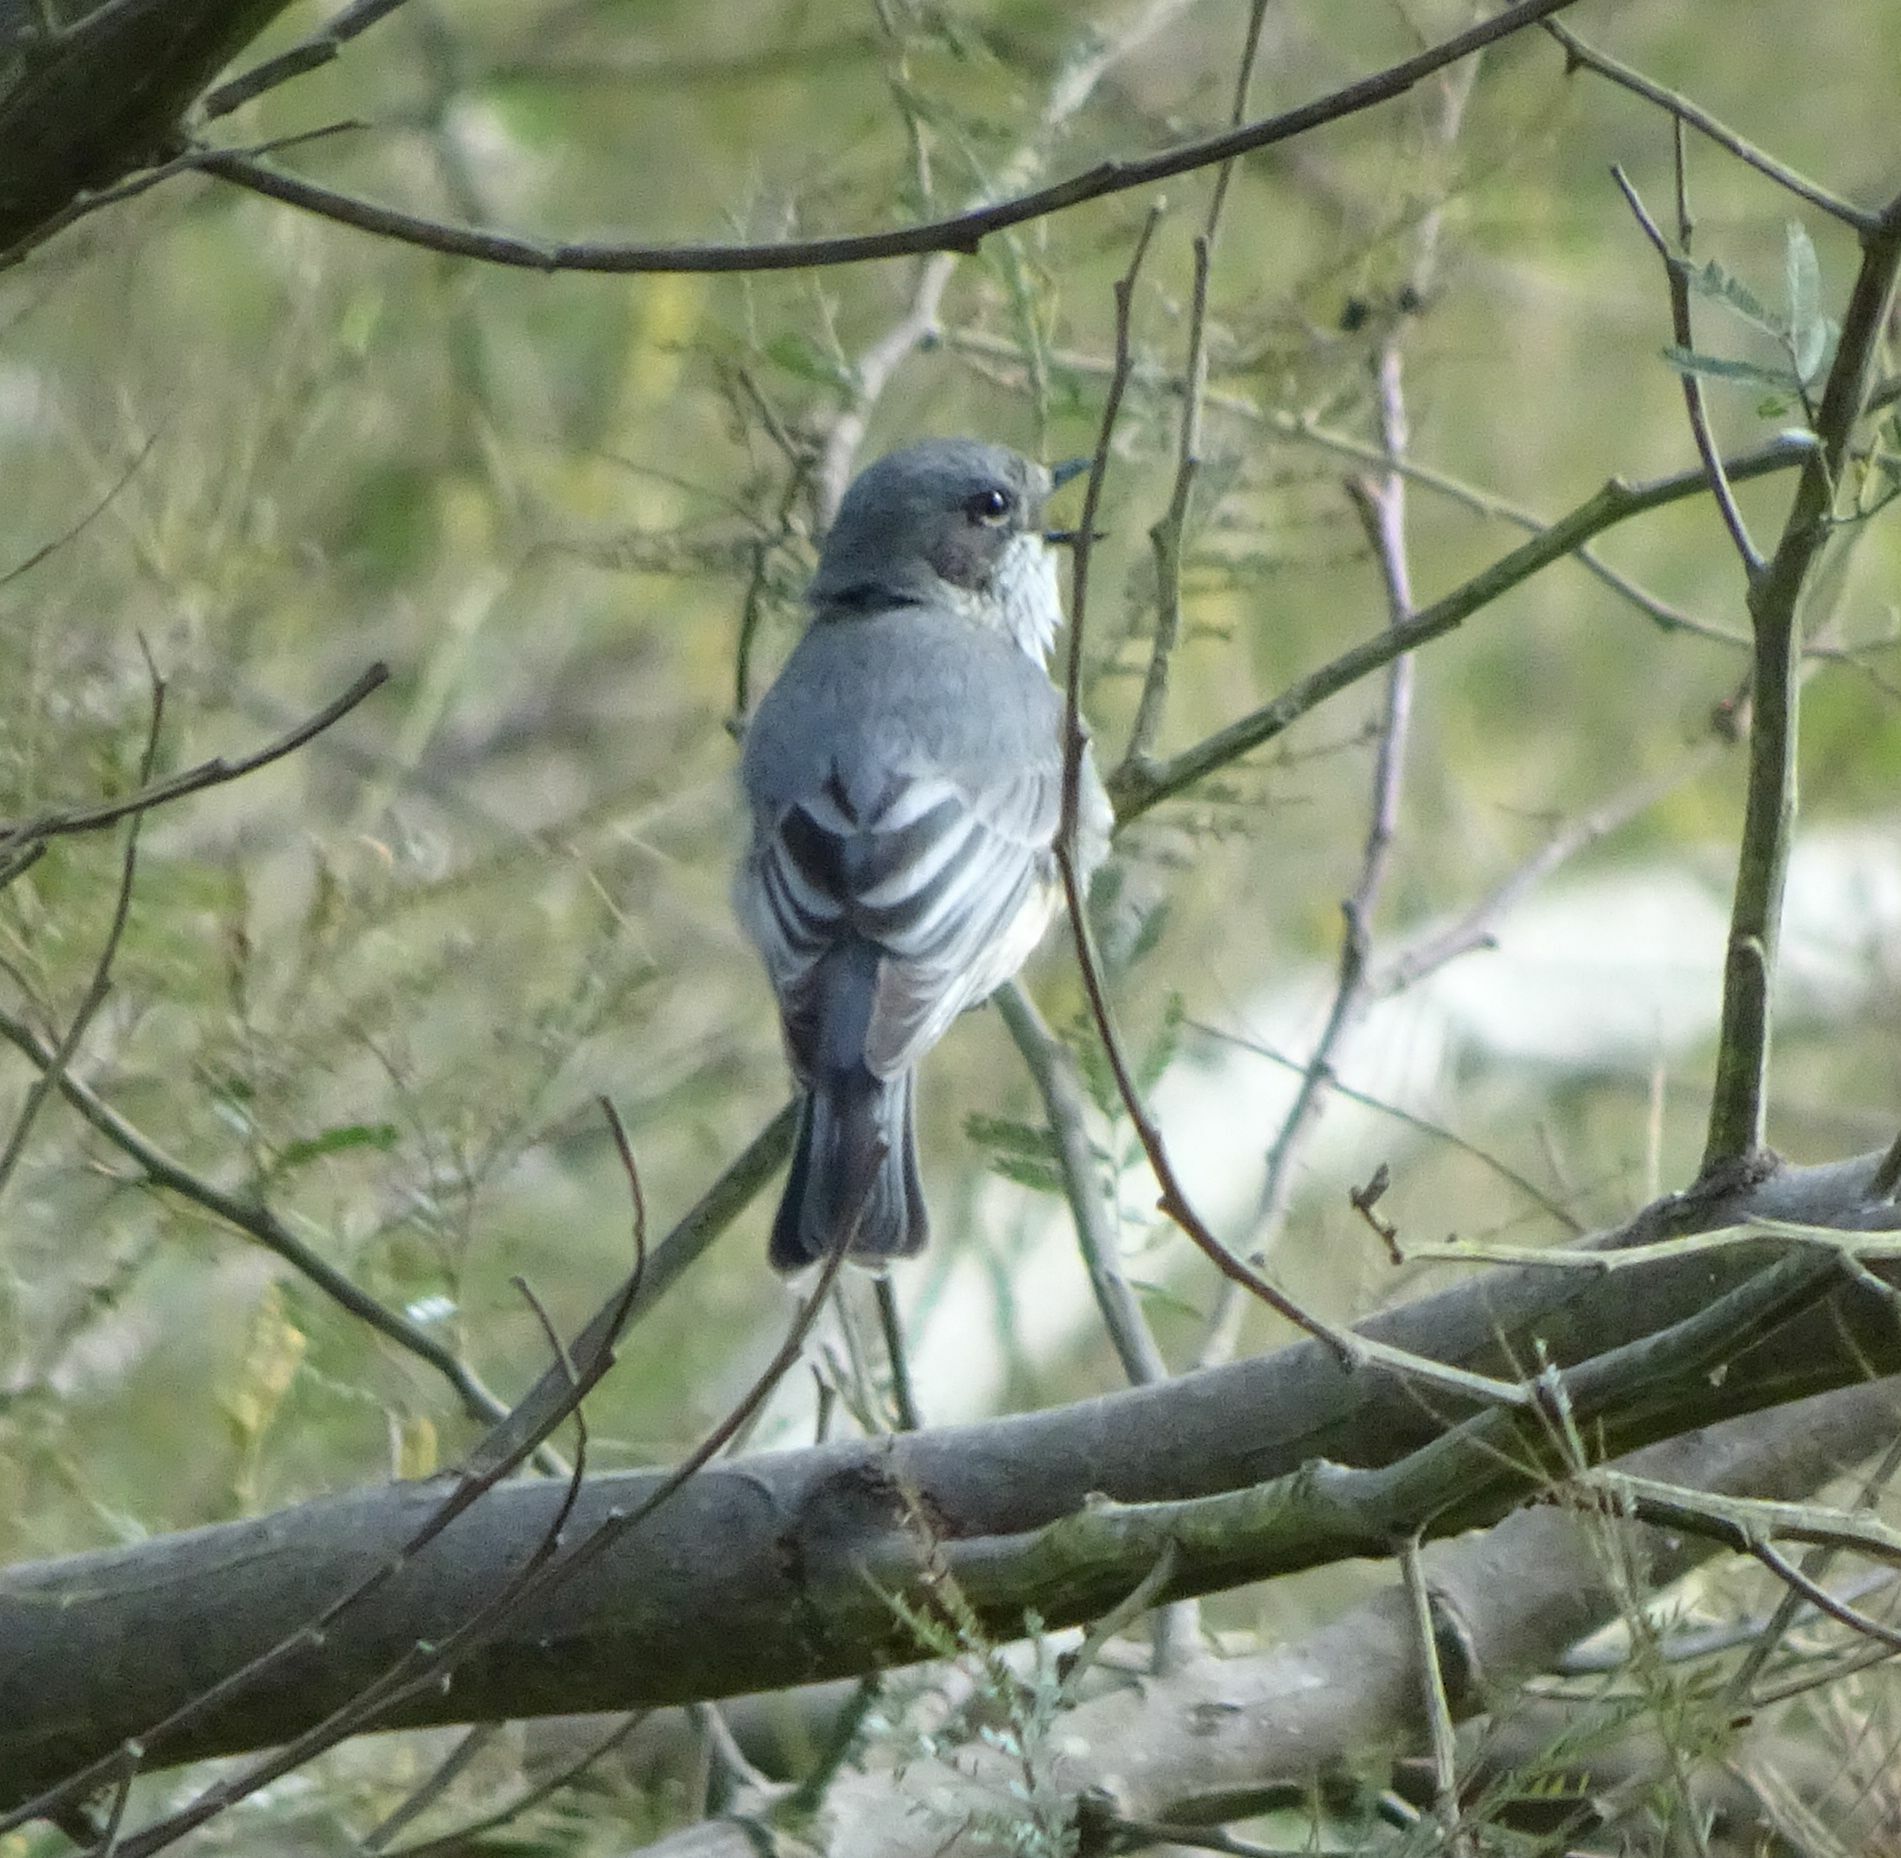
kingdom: Animalia
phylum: Chordata
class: Aves
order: Passeriformes
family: Pachycephalidae
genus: Pachycephala
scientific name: Pachycephala rufiventris
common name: Rufous whistler
